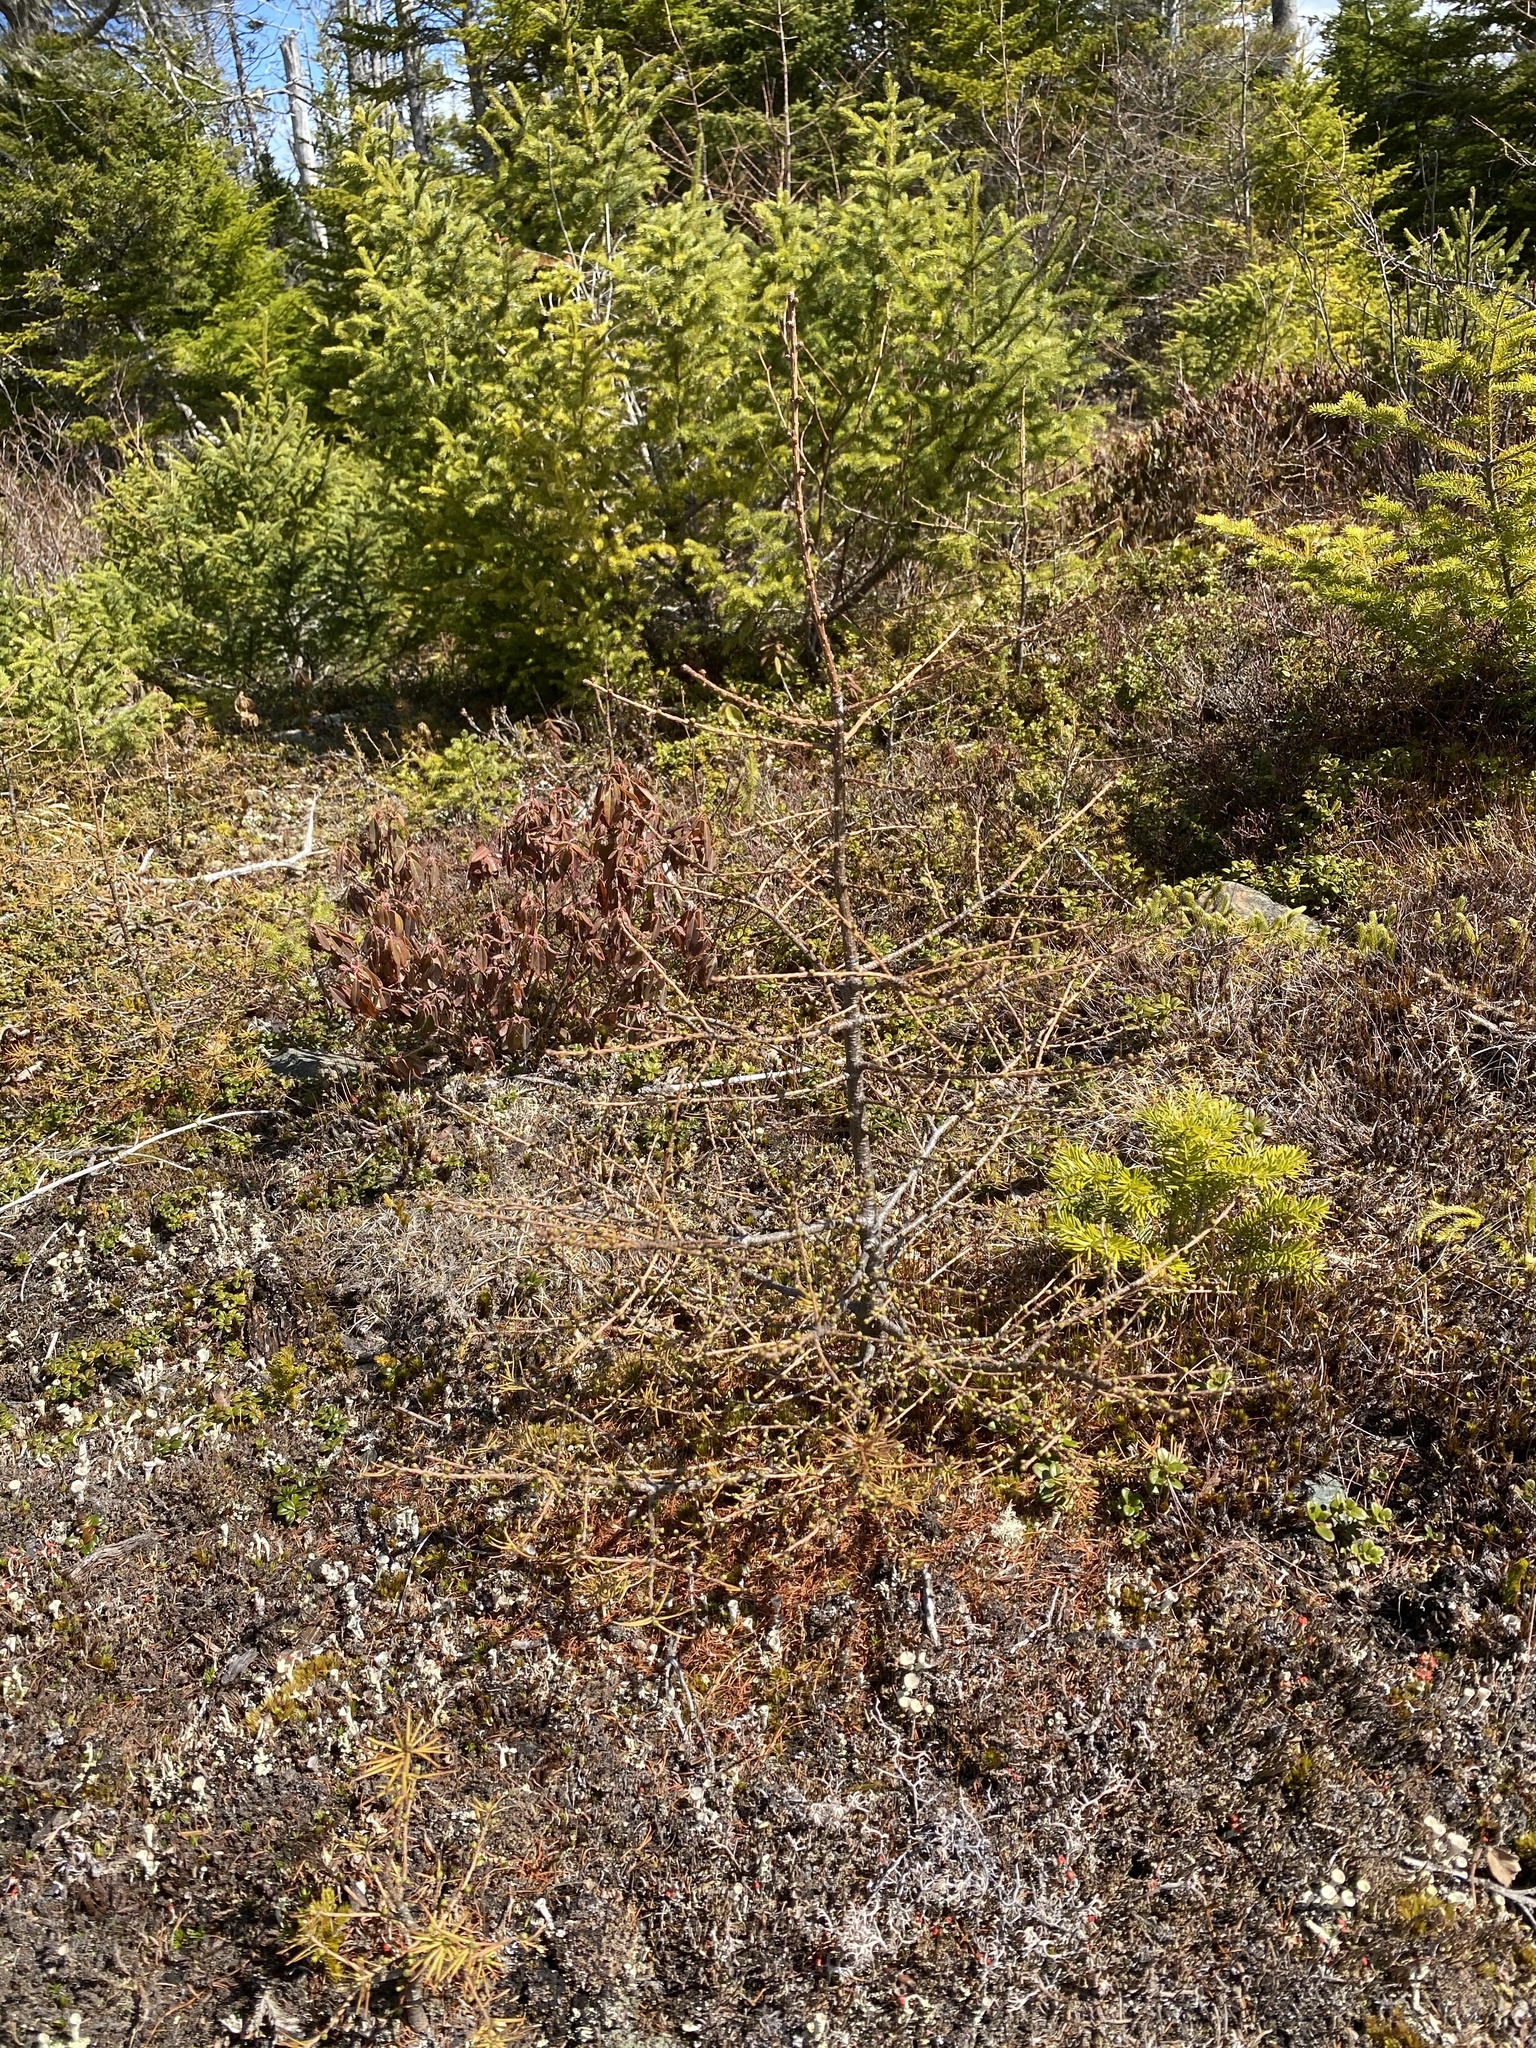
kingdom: Plantae
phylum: Tracheophyta
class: Pinopsida
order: Pinales
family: Pinaceae
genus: Larix
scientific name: Larix laricina
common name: American larch
